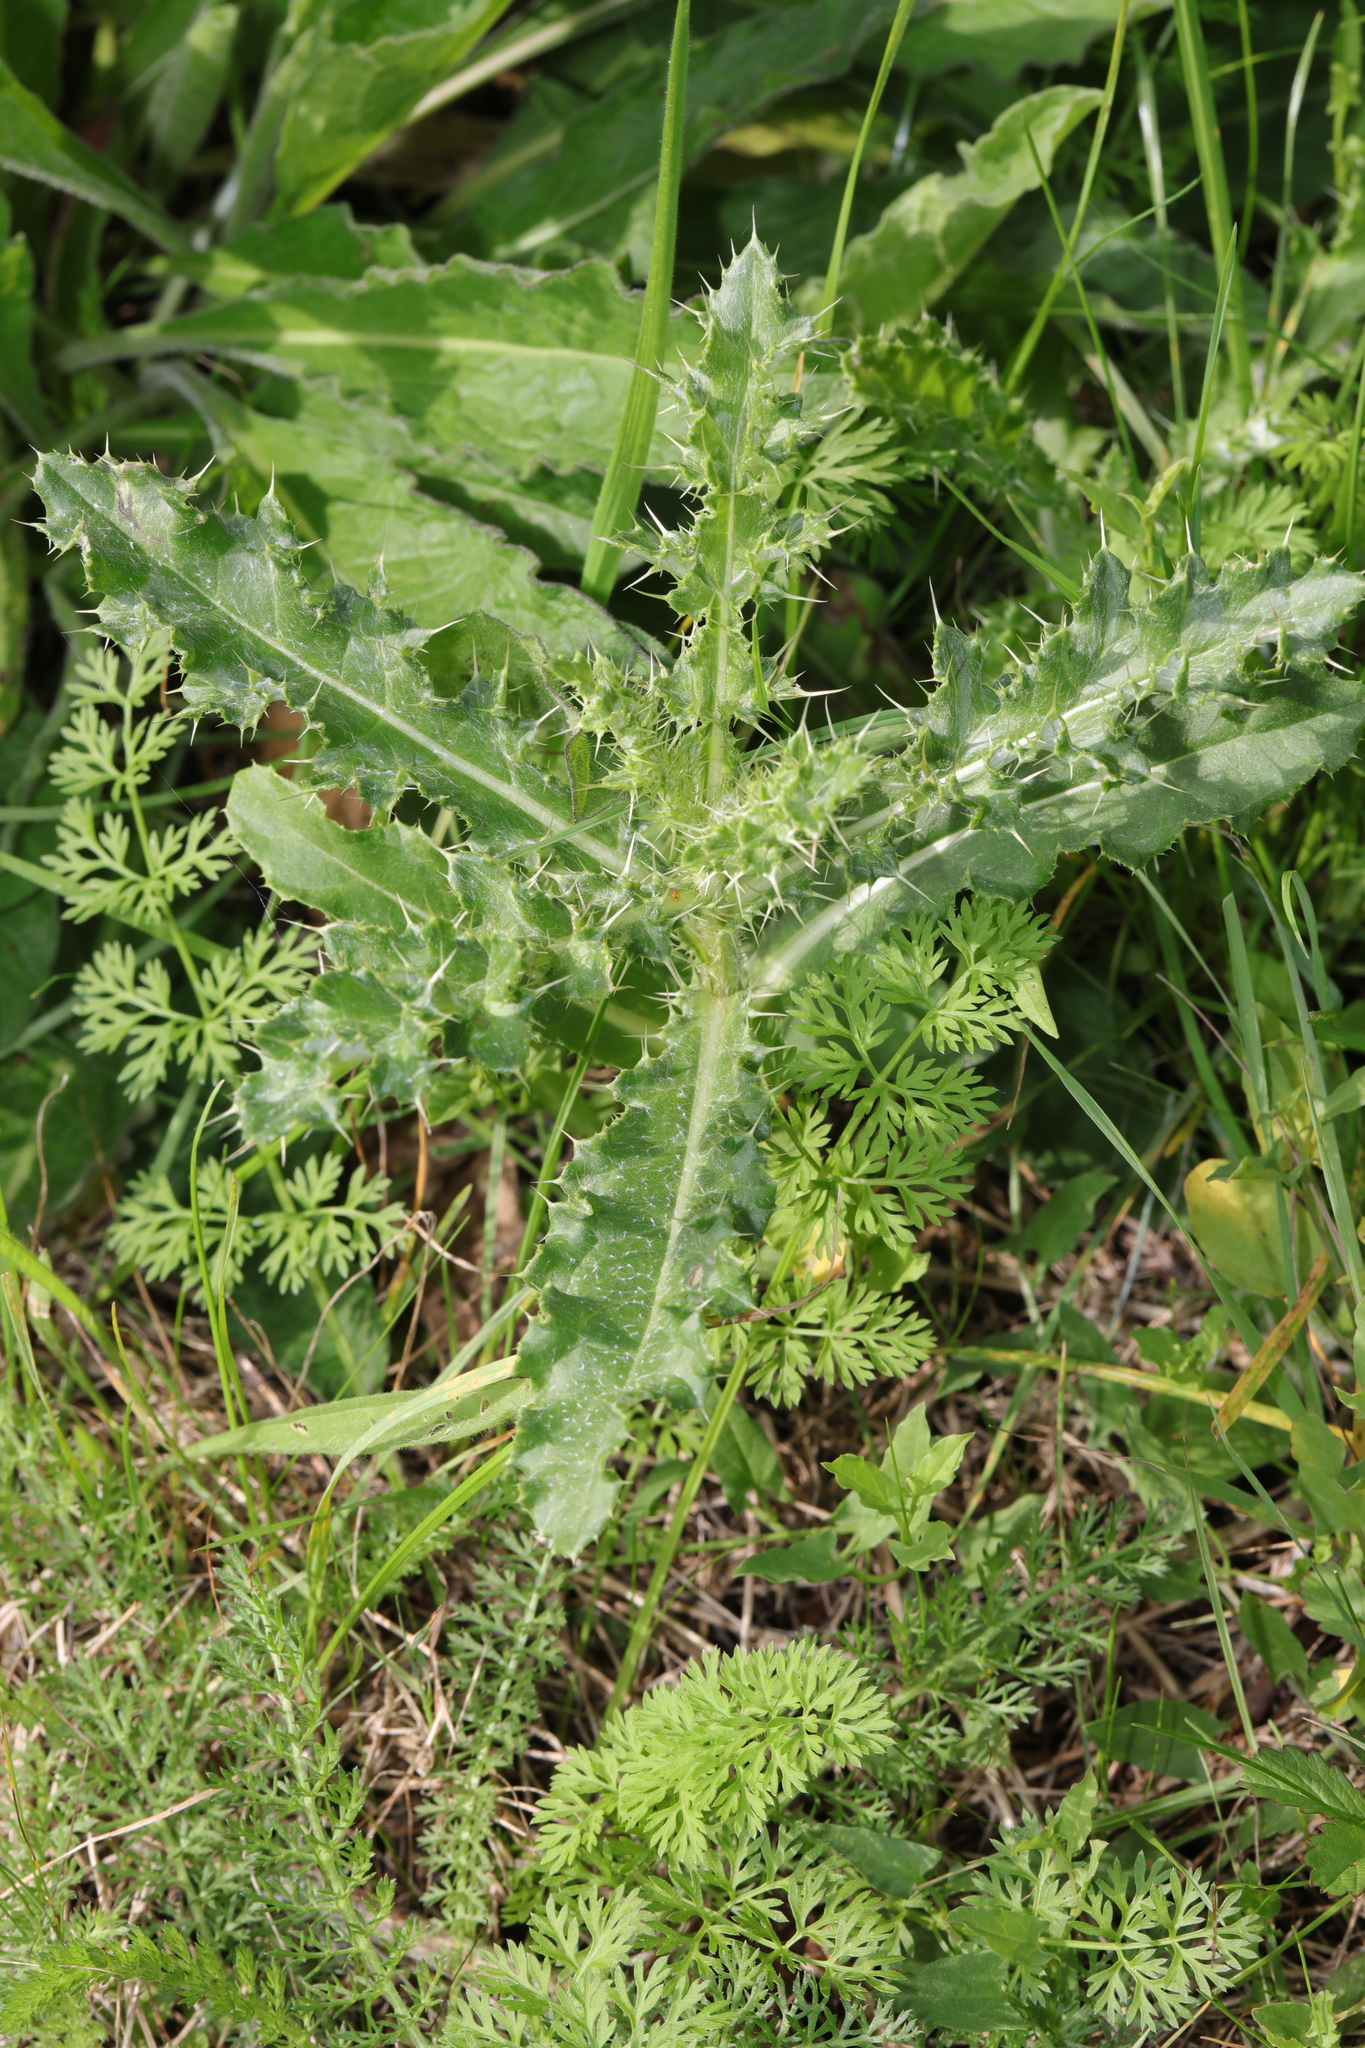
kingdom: Plantae
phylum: Tracheophyta
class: Magnoliopsida
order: Asterales
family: Asteraceae
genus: Cirsium
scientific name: Cirsium arvense
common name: Creeping thistle
